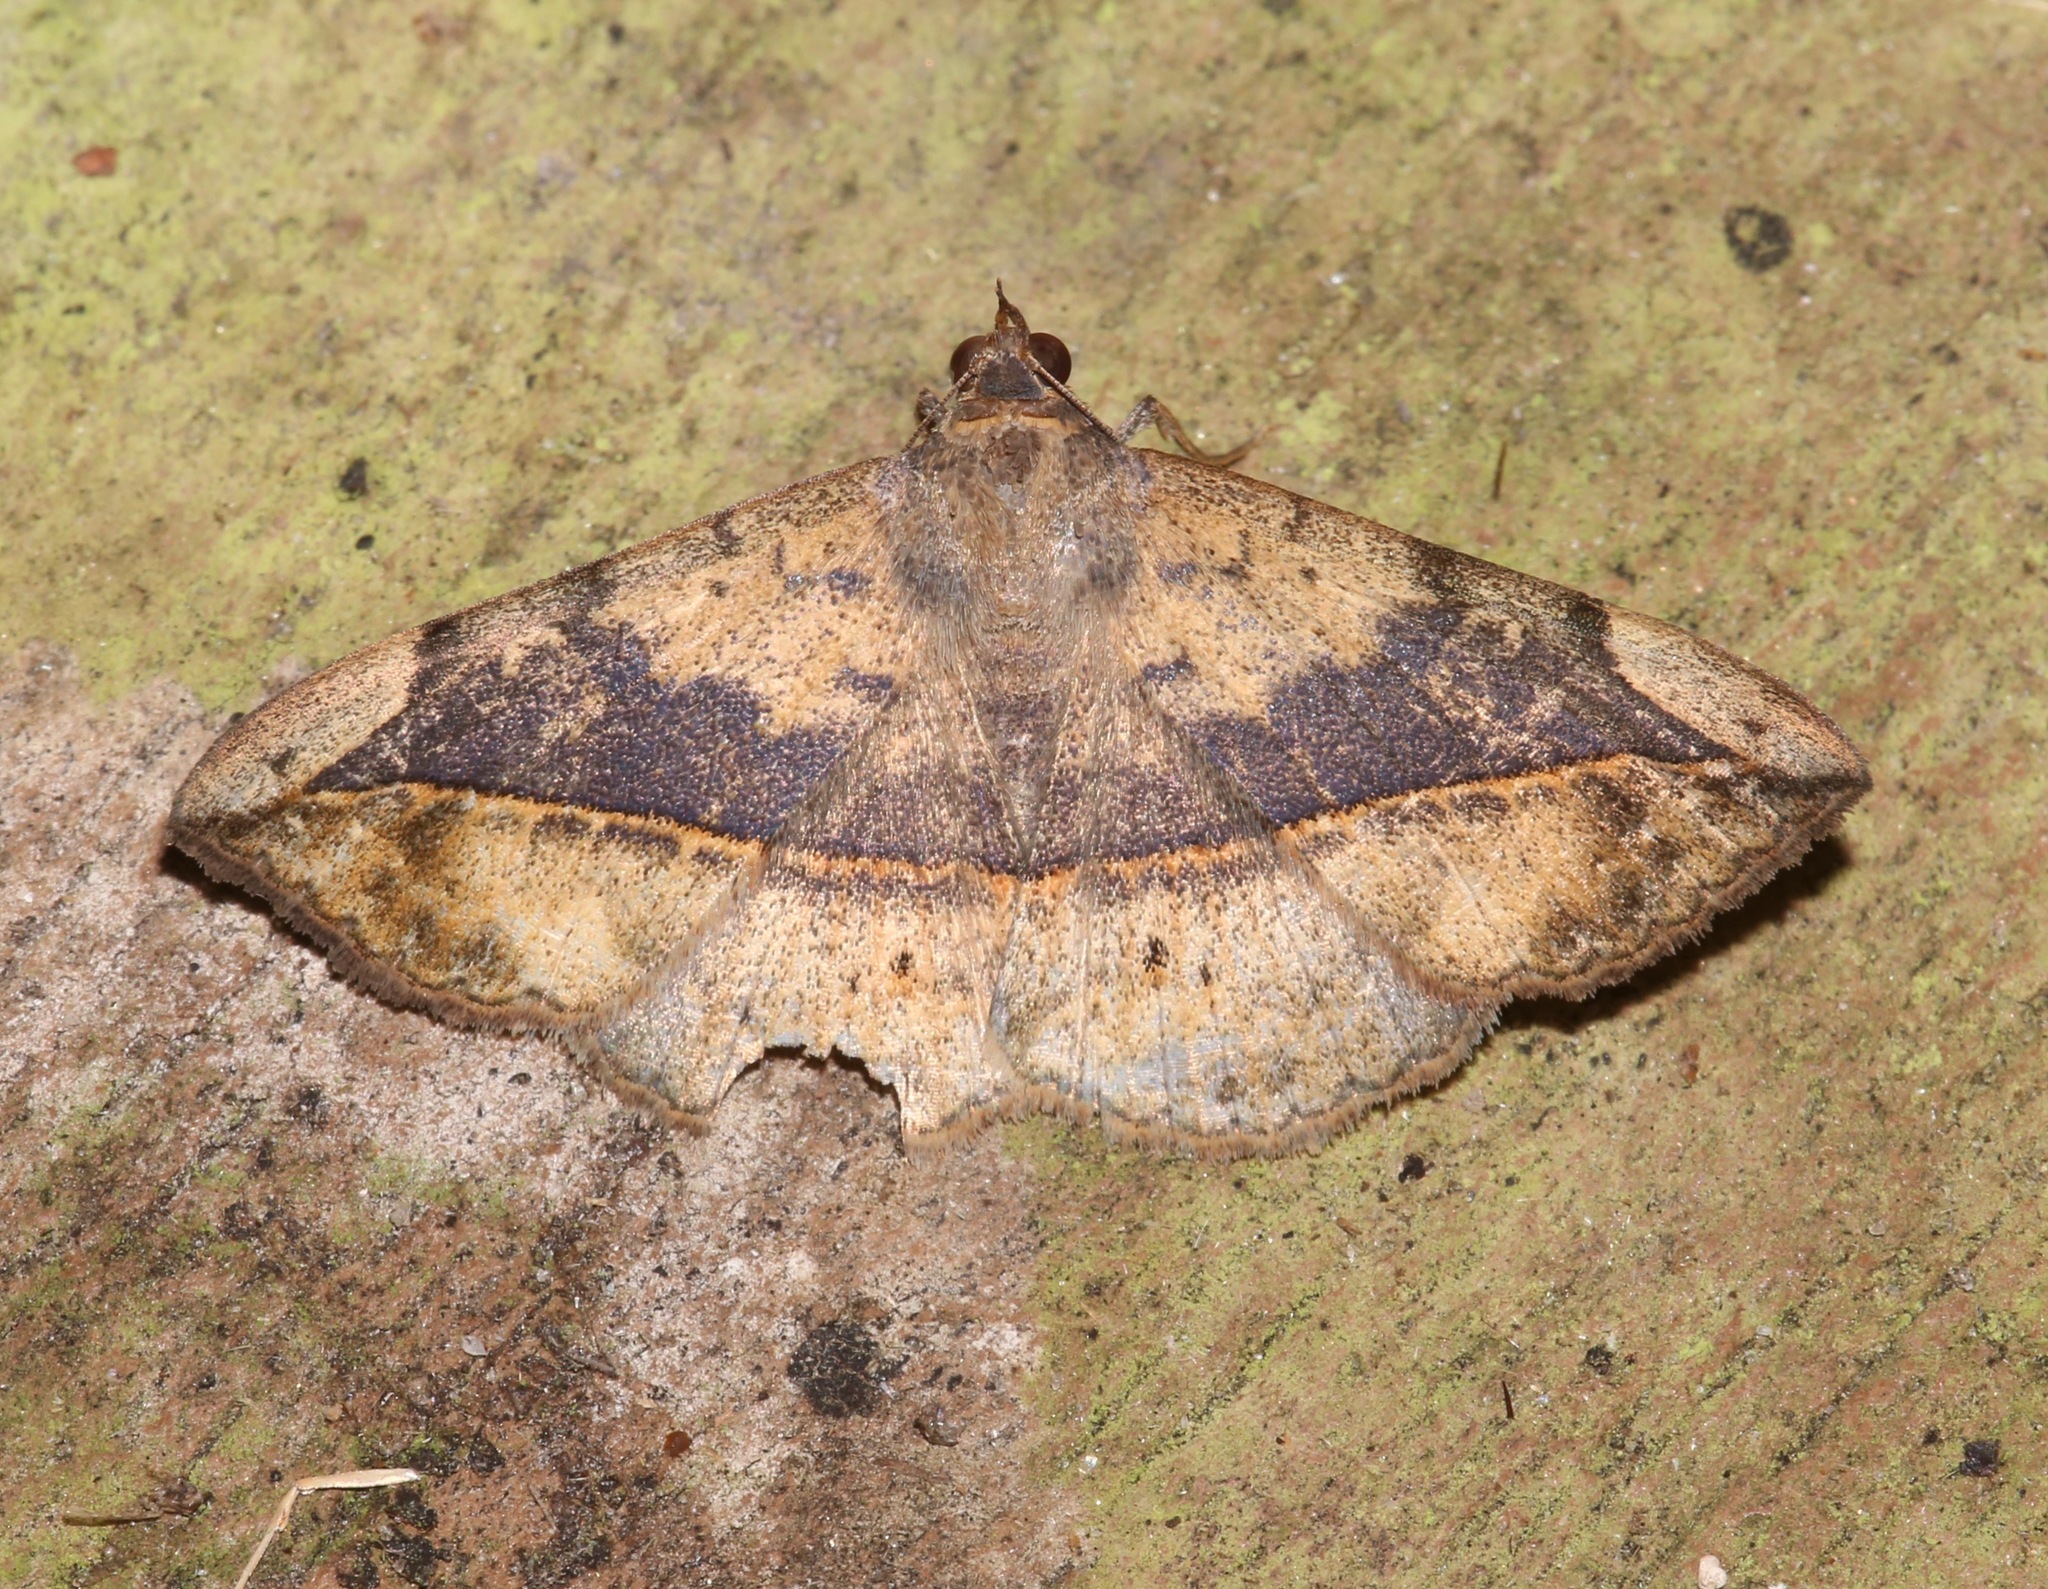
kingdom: Animalia
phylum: Arthropoda
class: Insecta
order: Lepidoptera
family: Erebidae
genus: Anticarsia
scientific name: Anticarsia gemmatalis
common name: Cutworm moth
